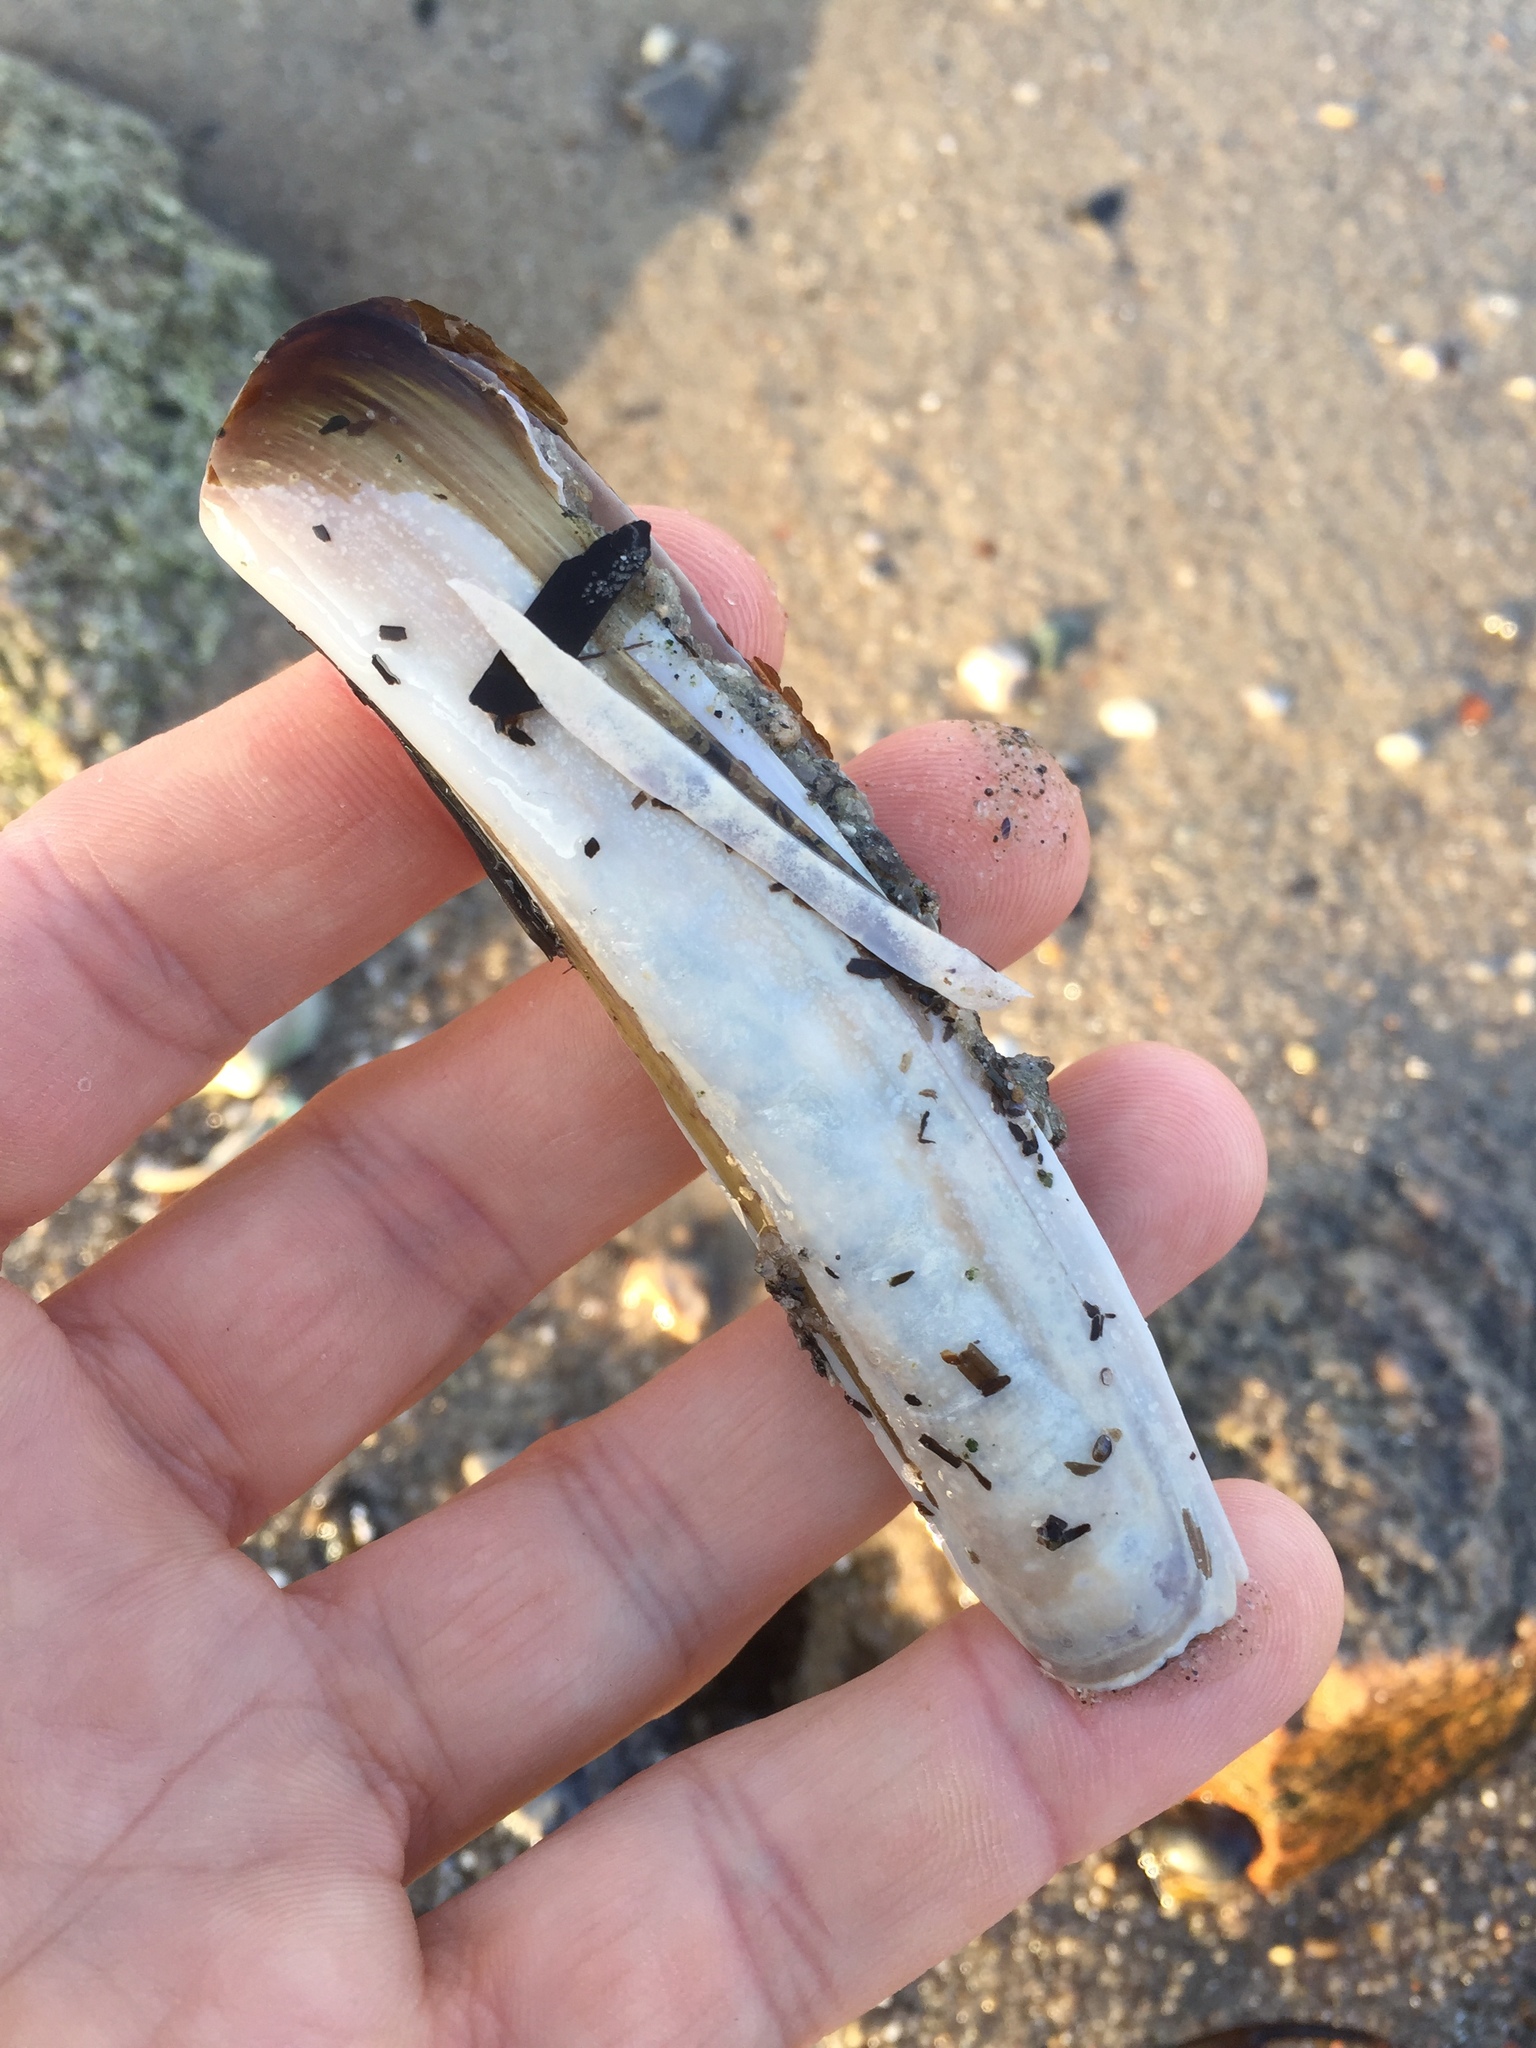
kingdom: Animalia
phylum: Mollusca
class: Bivalvia
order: Adapedonta
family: Pharidae
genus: Ensis
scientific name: Ensis leei
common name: American jack knife clam
